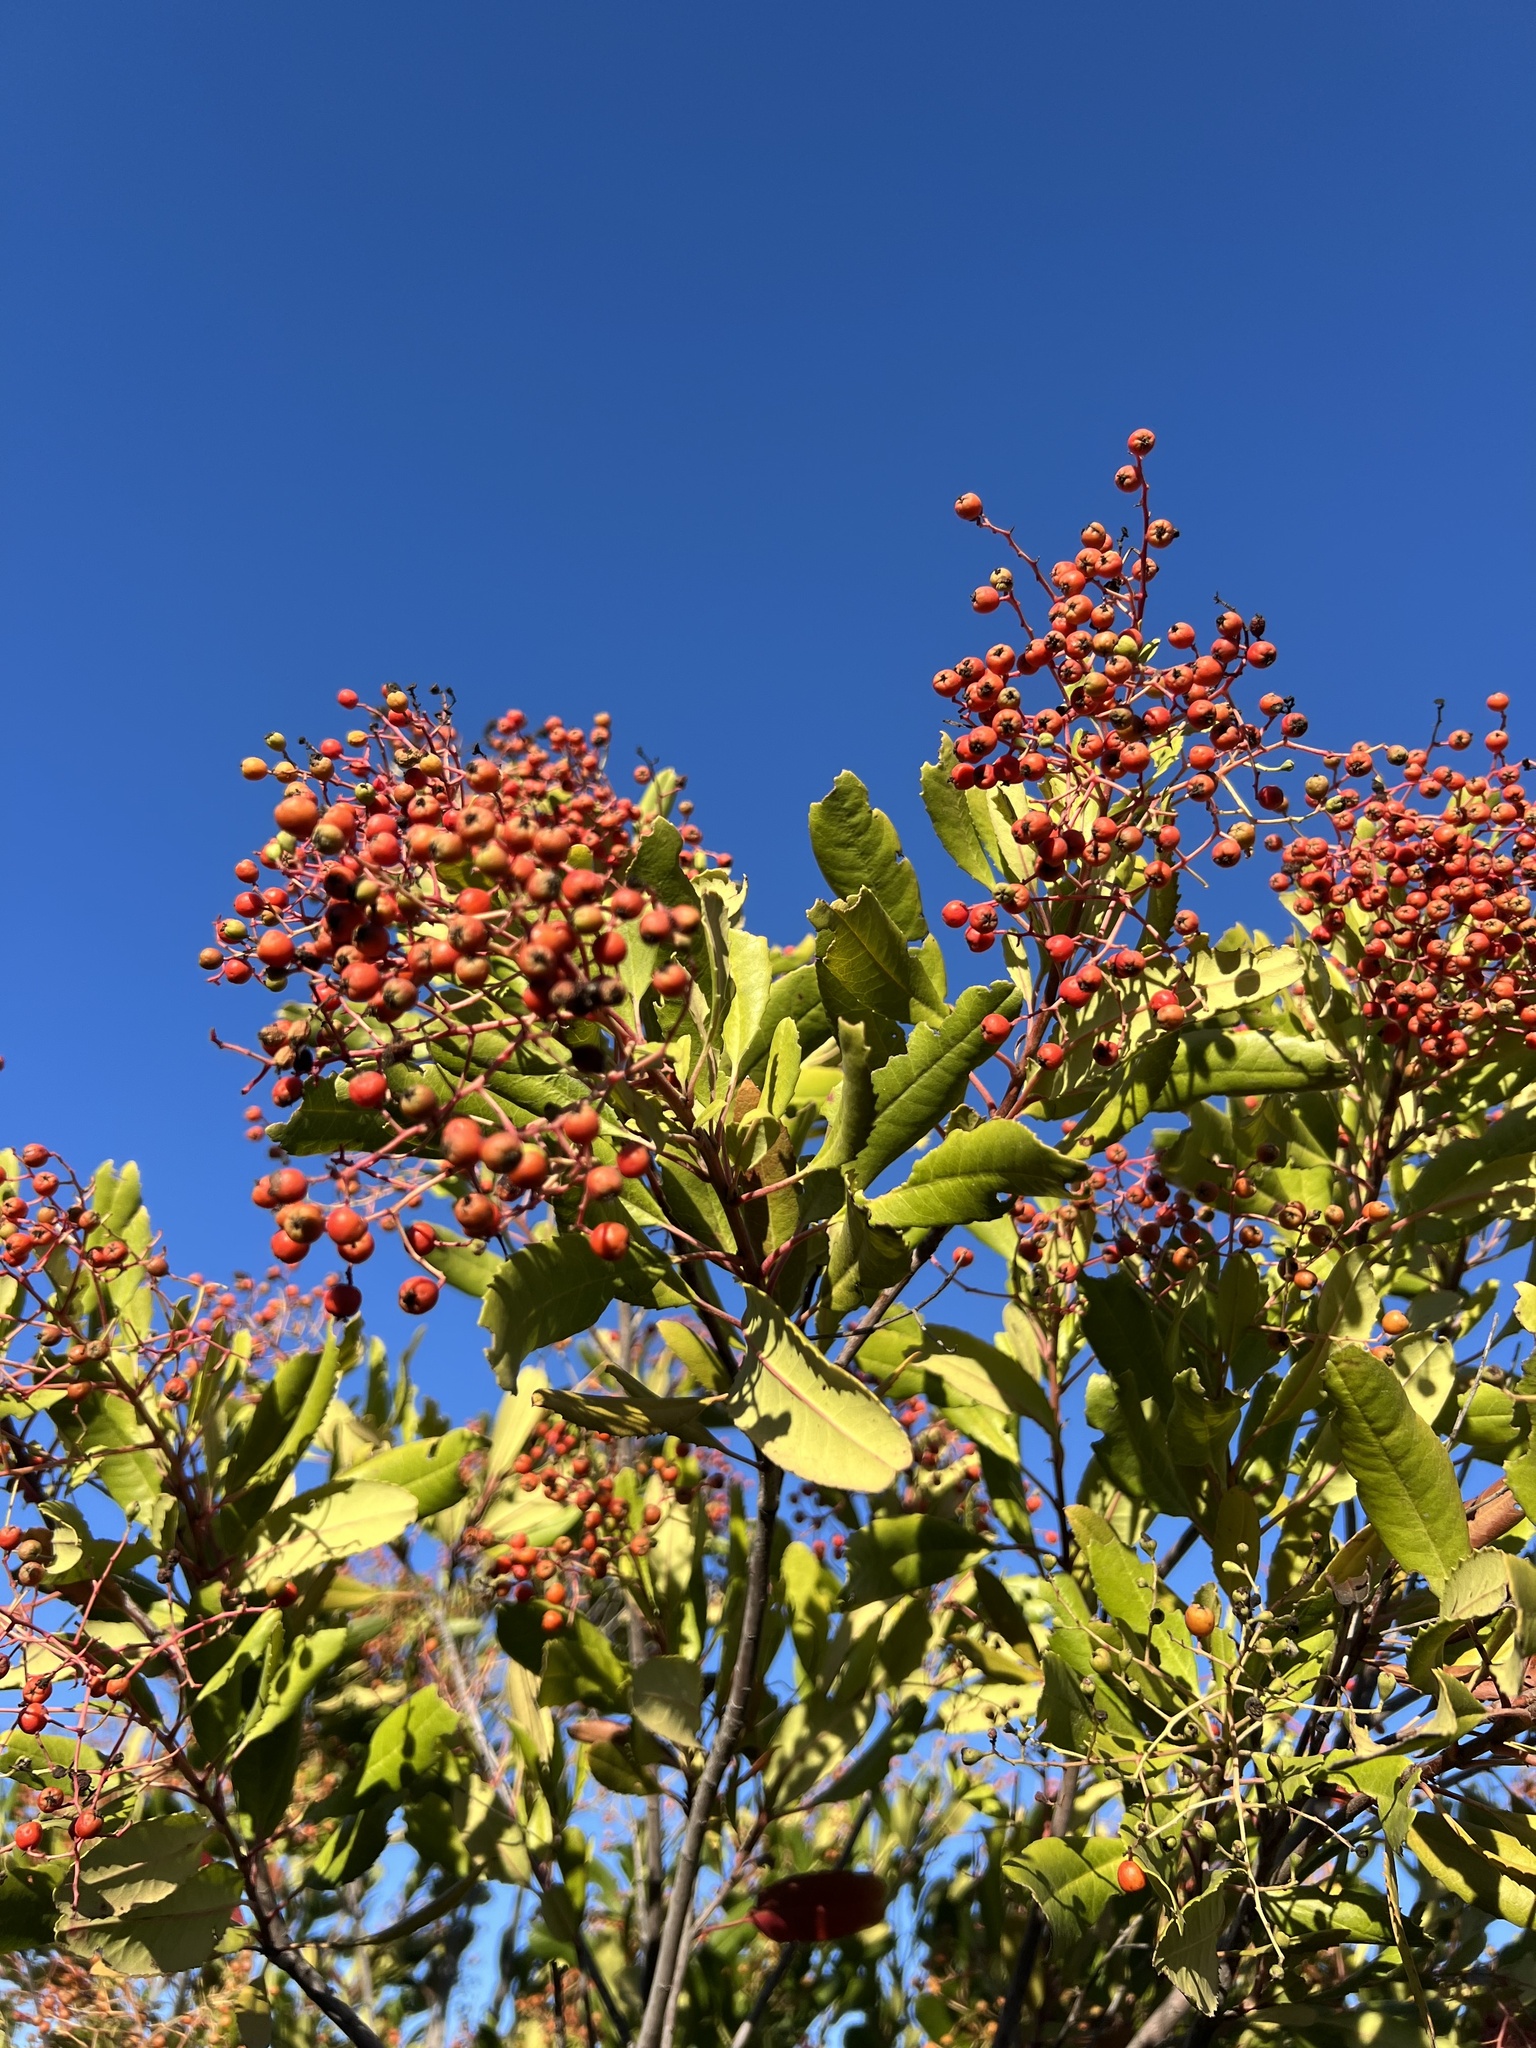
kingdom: Plantae
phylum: Tracheophyta
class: Magnoliopsida
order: Rosales
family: Rosaceae
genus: Heteromeles
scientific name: Heteromeles arbutifolia
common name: California-holly
